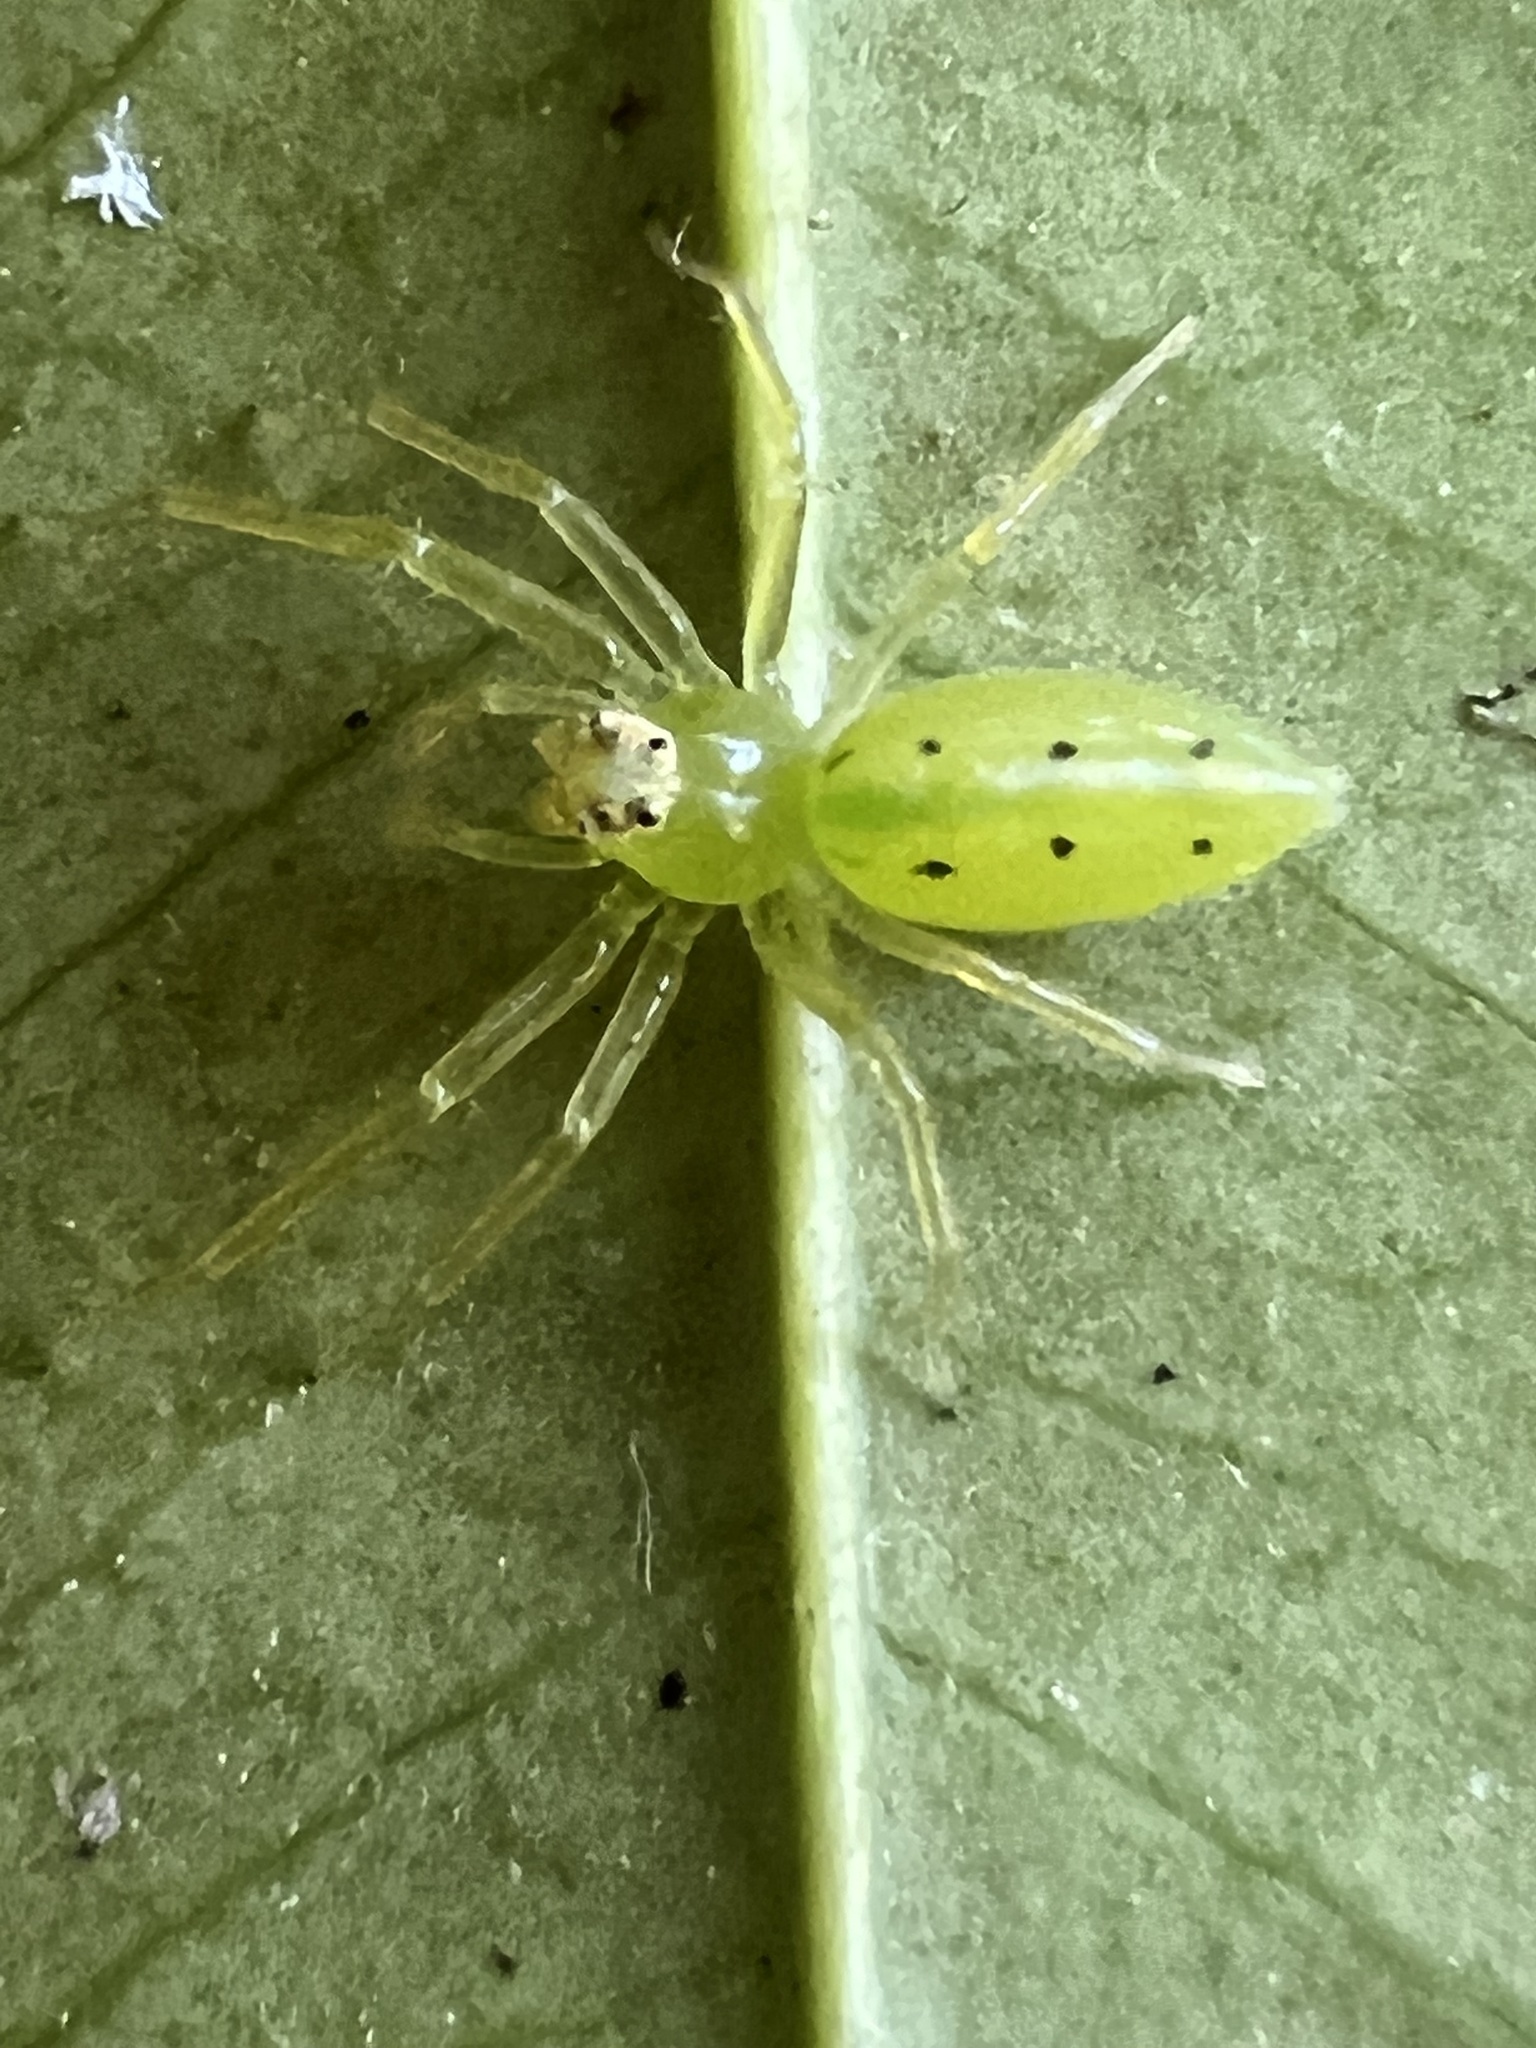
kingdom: Animalia
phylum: Arthropoda
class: Arachnida
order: Araneae
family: Salticidae
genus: Lyssomanes
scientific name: Lyssomanes viridis
